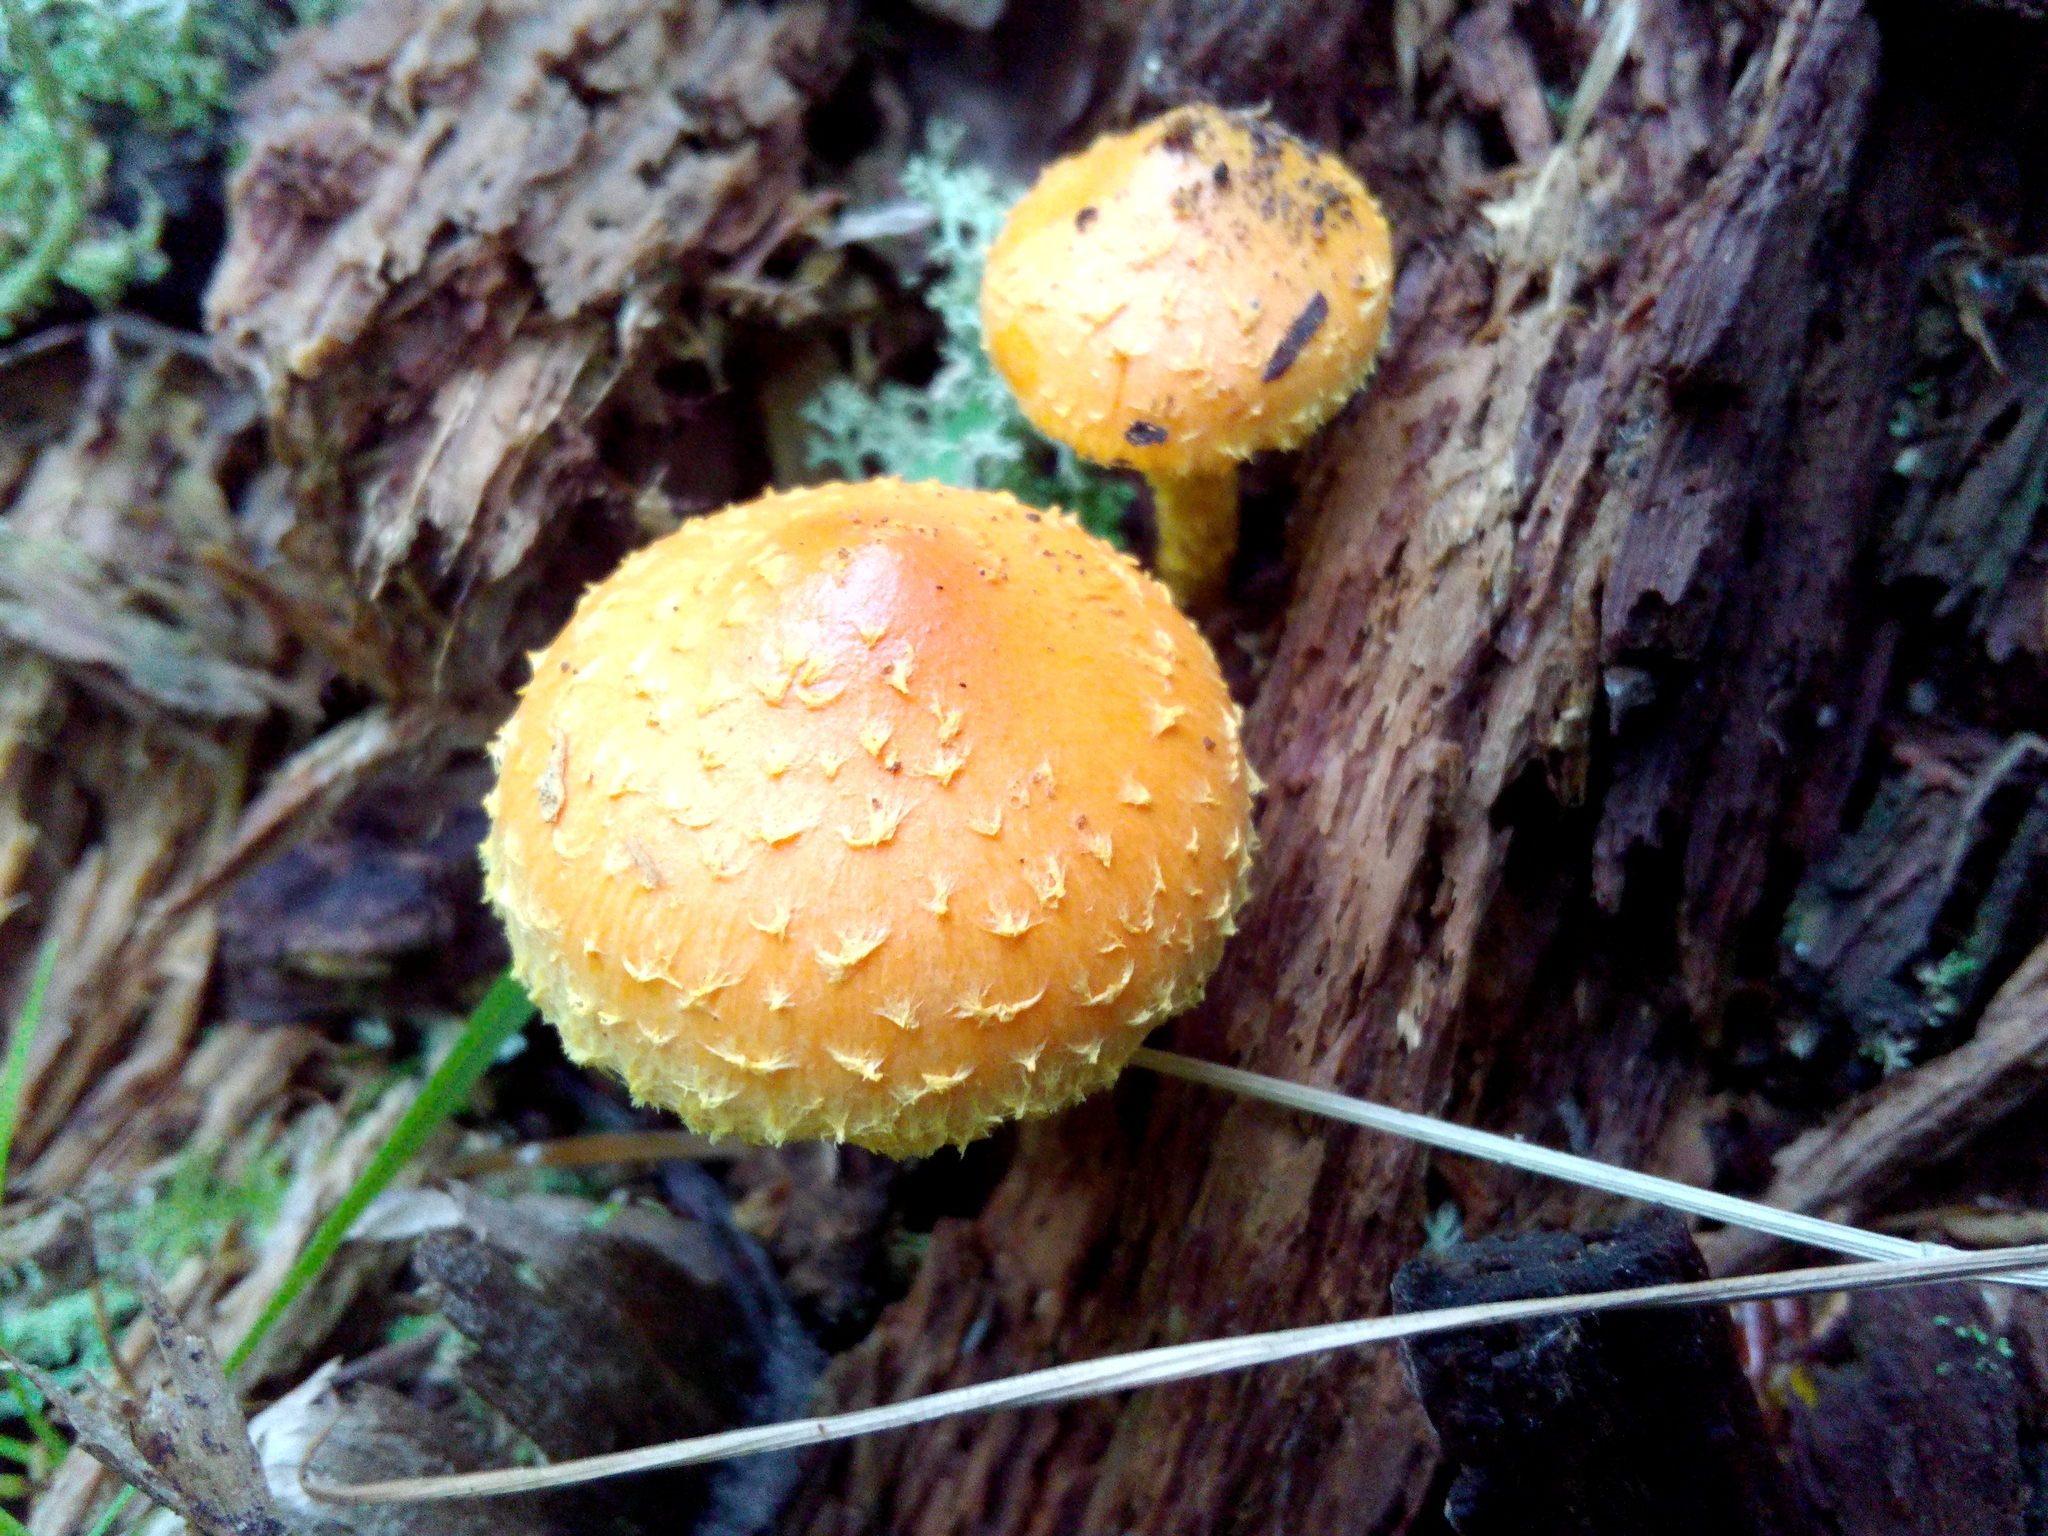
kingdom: Fungi
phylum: Basidiomycota
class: Agaricomycetes
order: Agaricales
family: Strophariaceae
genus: Pholiota
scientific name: Pholiota flammans
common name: Flaming scalycap
